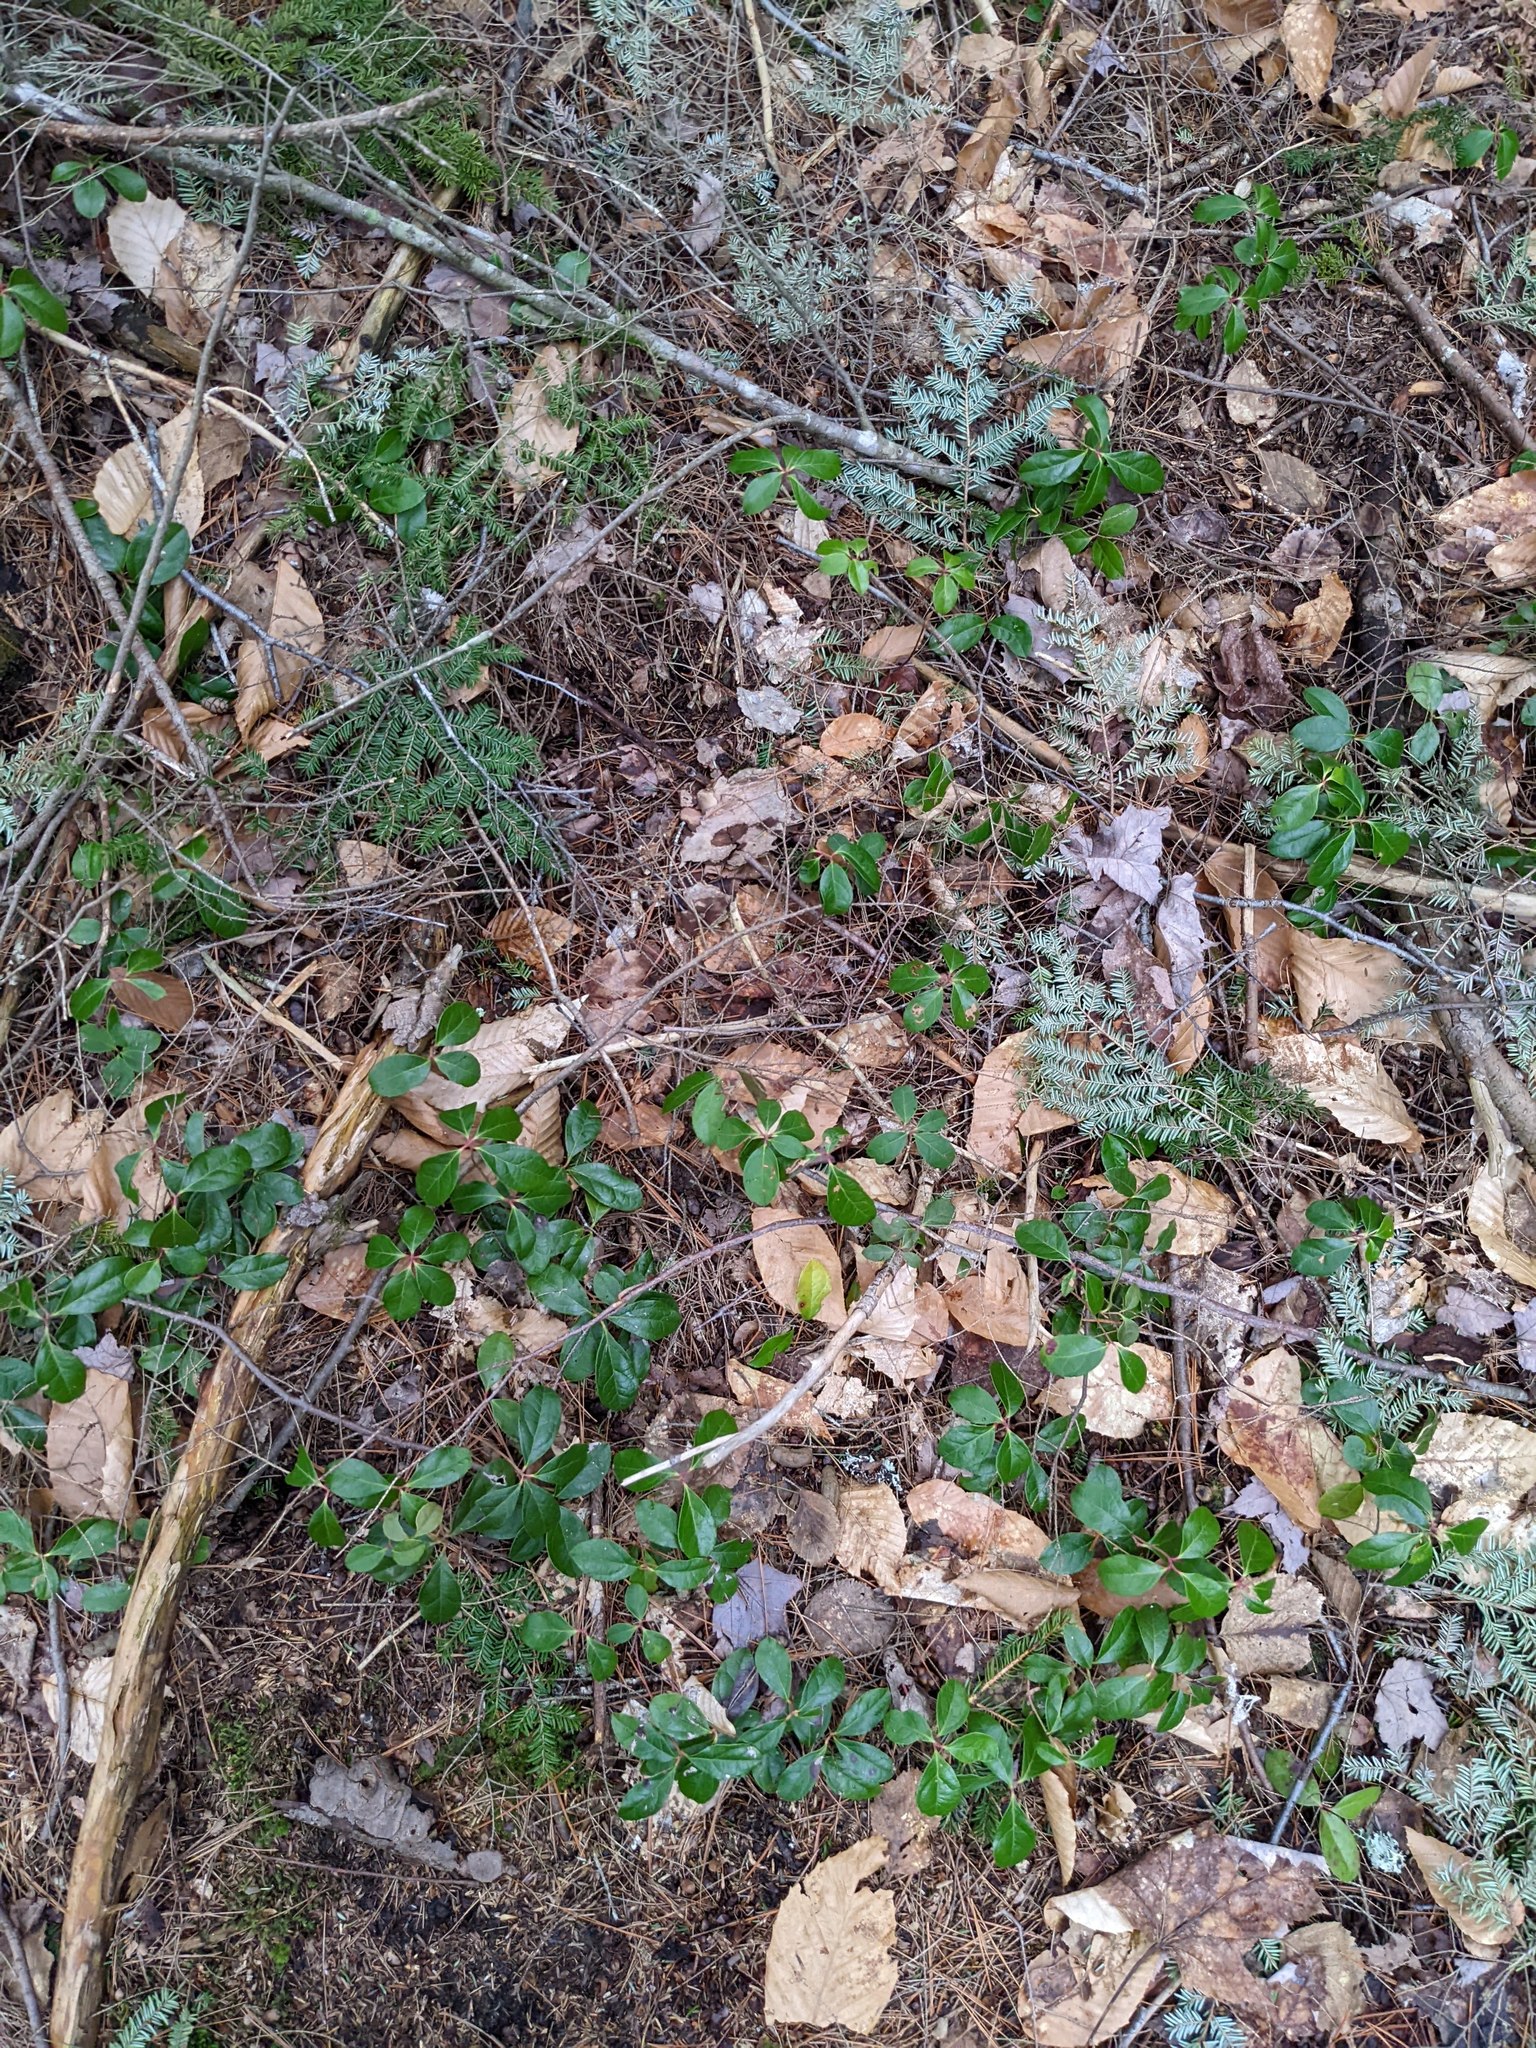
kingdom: Plantae
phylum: Tracheophyta
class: Magnoliopsida
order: Ericales
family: Ericaceae
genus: Gaultheria
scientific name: Gaultheria procumbens
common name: Checkerberry
